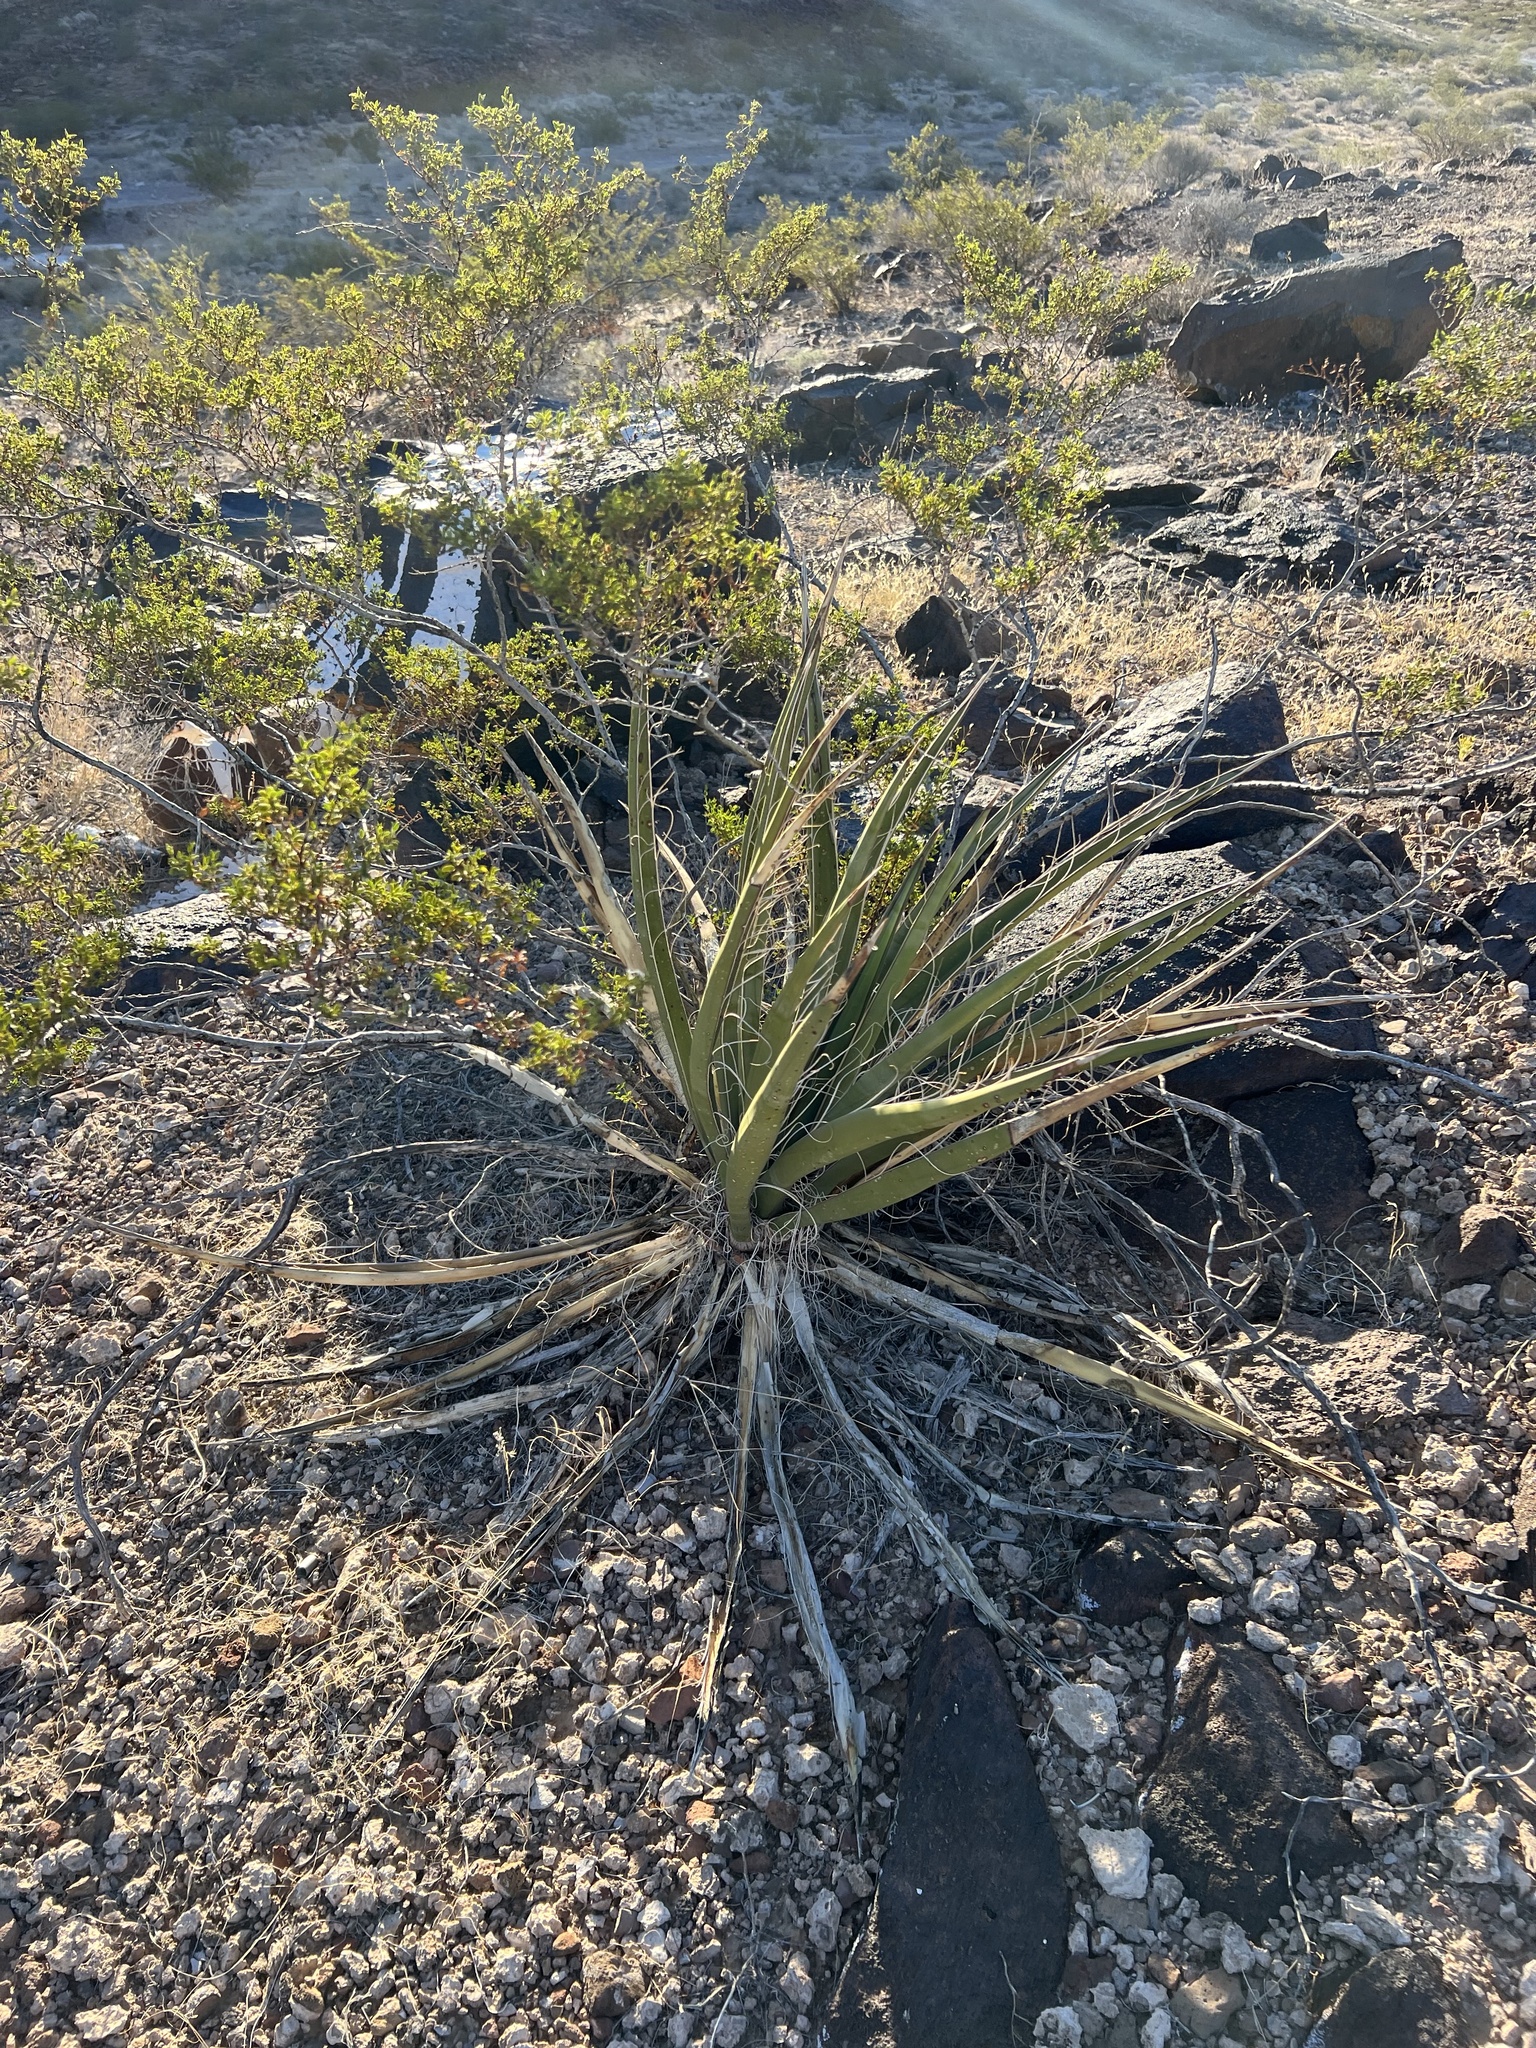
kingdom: Plantae
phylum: Tracheophyta
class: Liliopsida
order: Asparagales
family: Asparagaceae
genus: Yucca
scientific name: Yucca schidigera
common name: Mojave yucca
